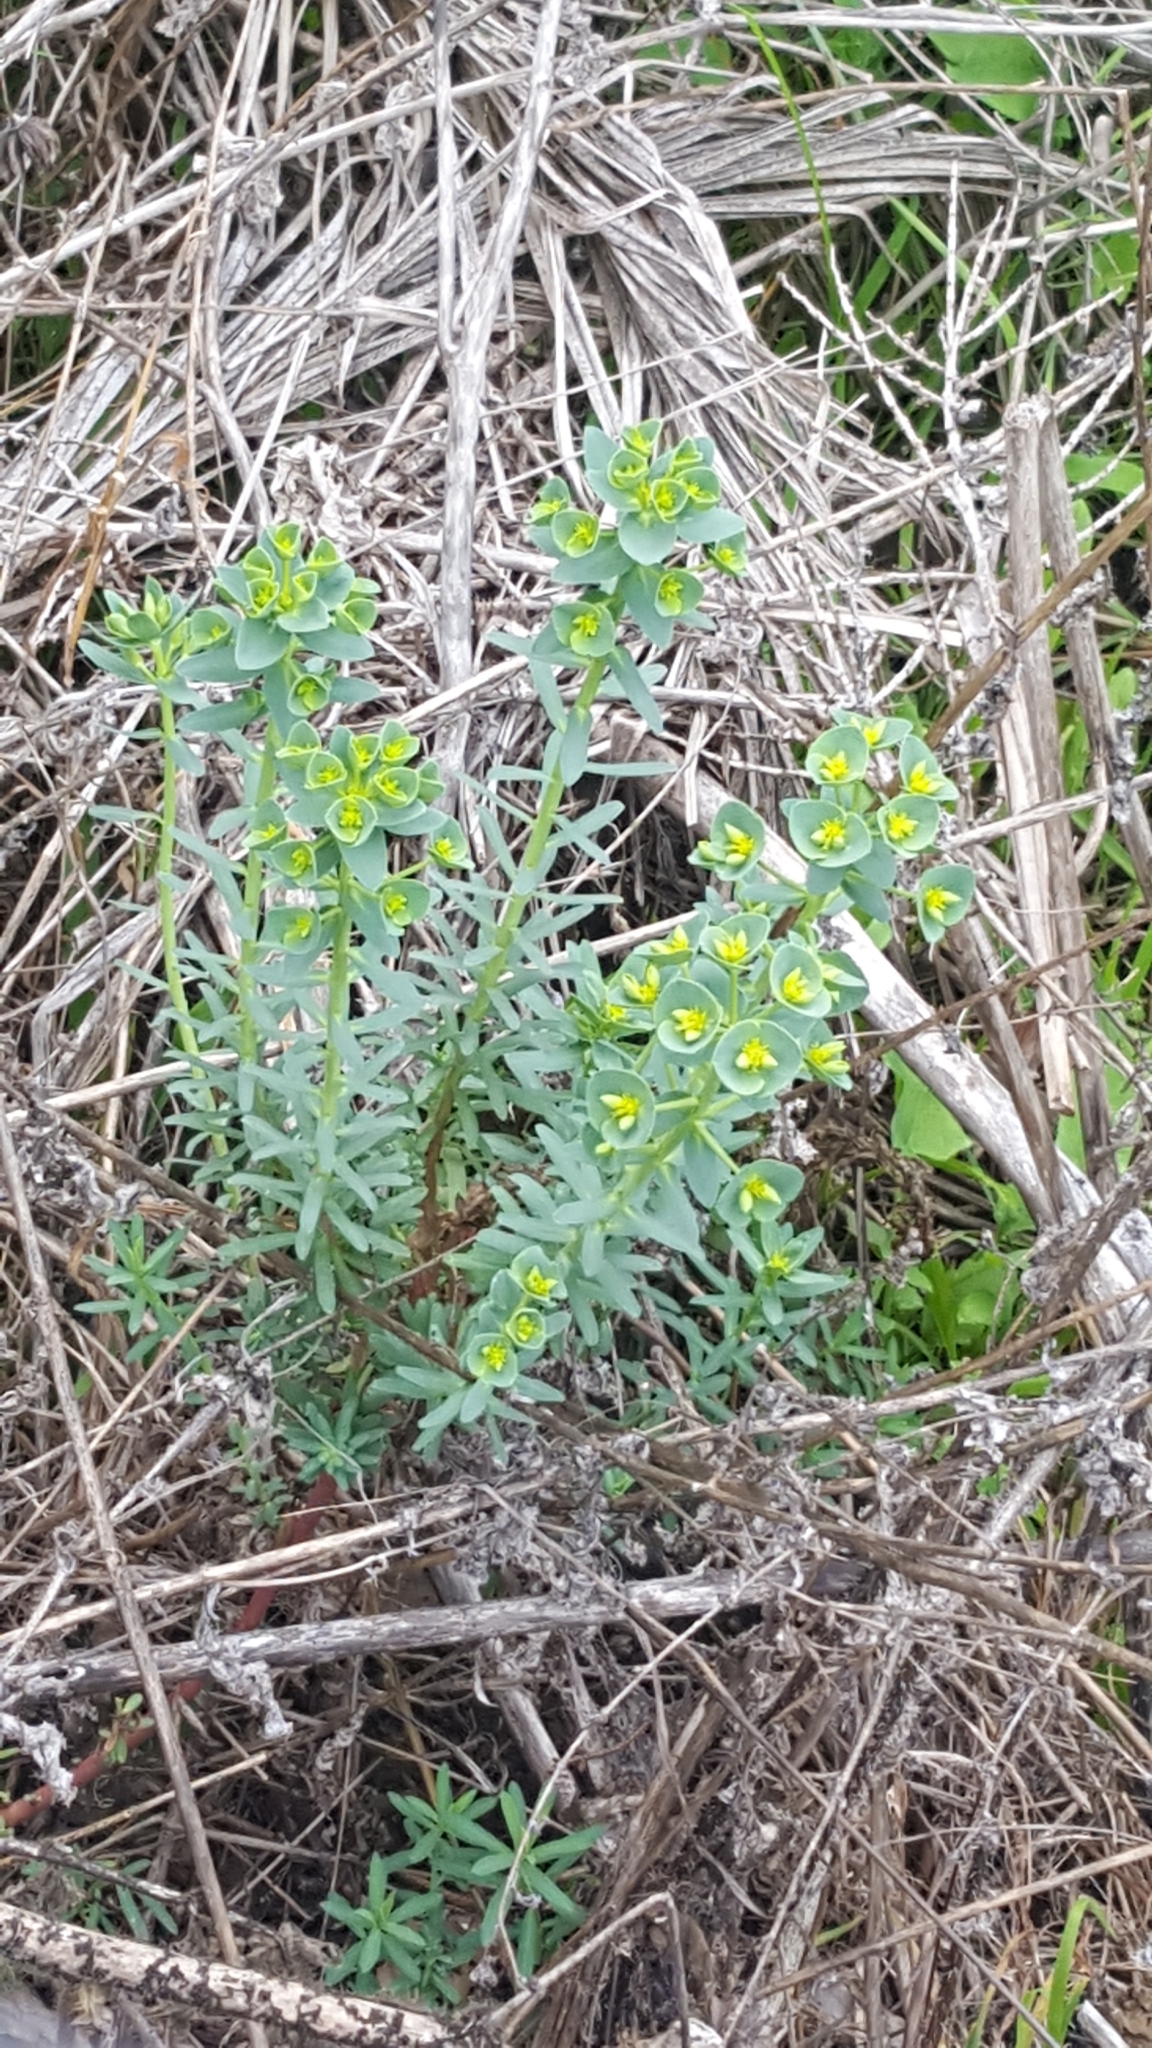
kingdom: Plantae
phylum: Tracheophyta
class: Magnoliopsida
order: Malpighiales
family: Euphorbiaceae
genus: Euphorbia
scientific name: Euphorbia segetalis
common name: Corn spurge
